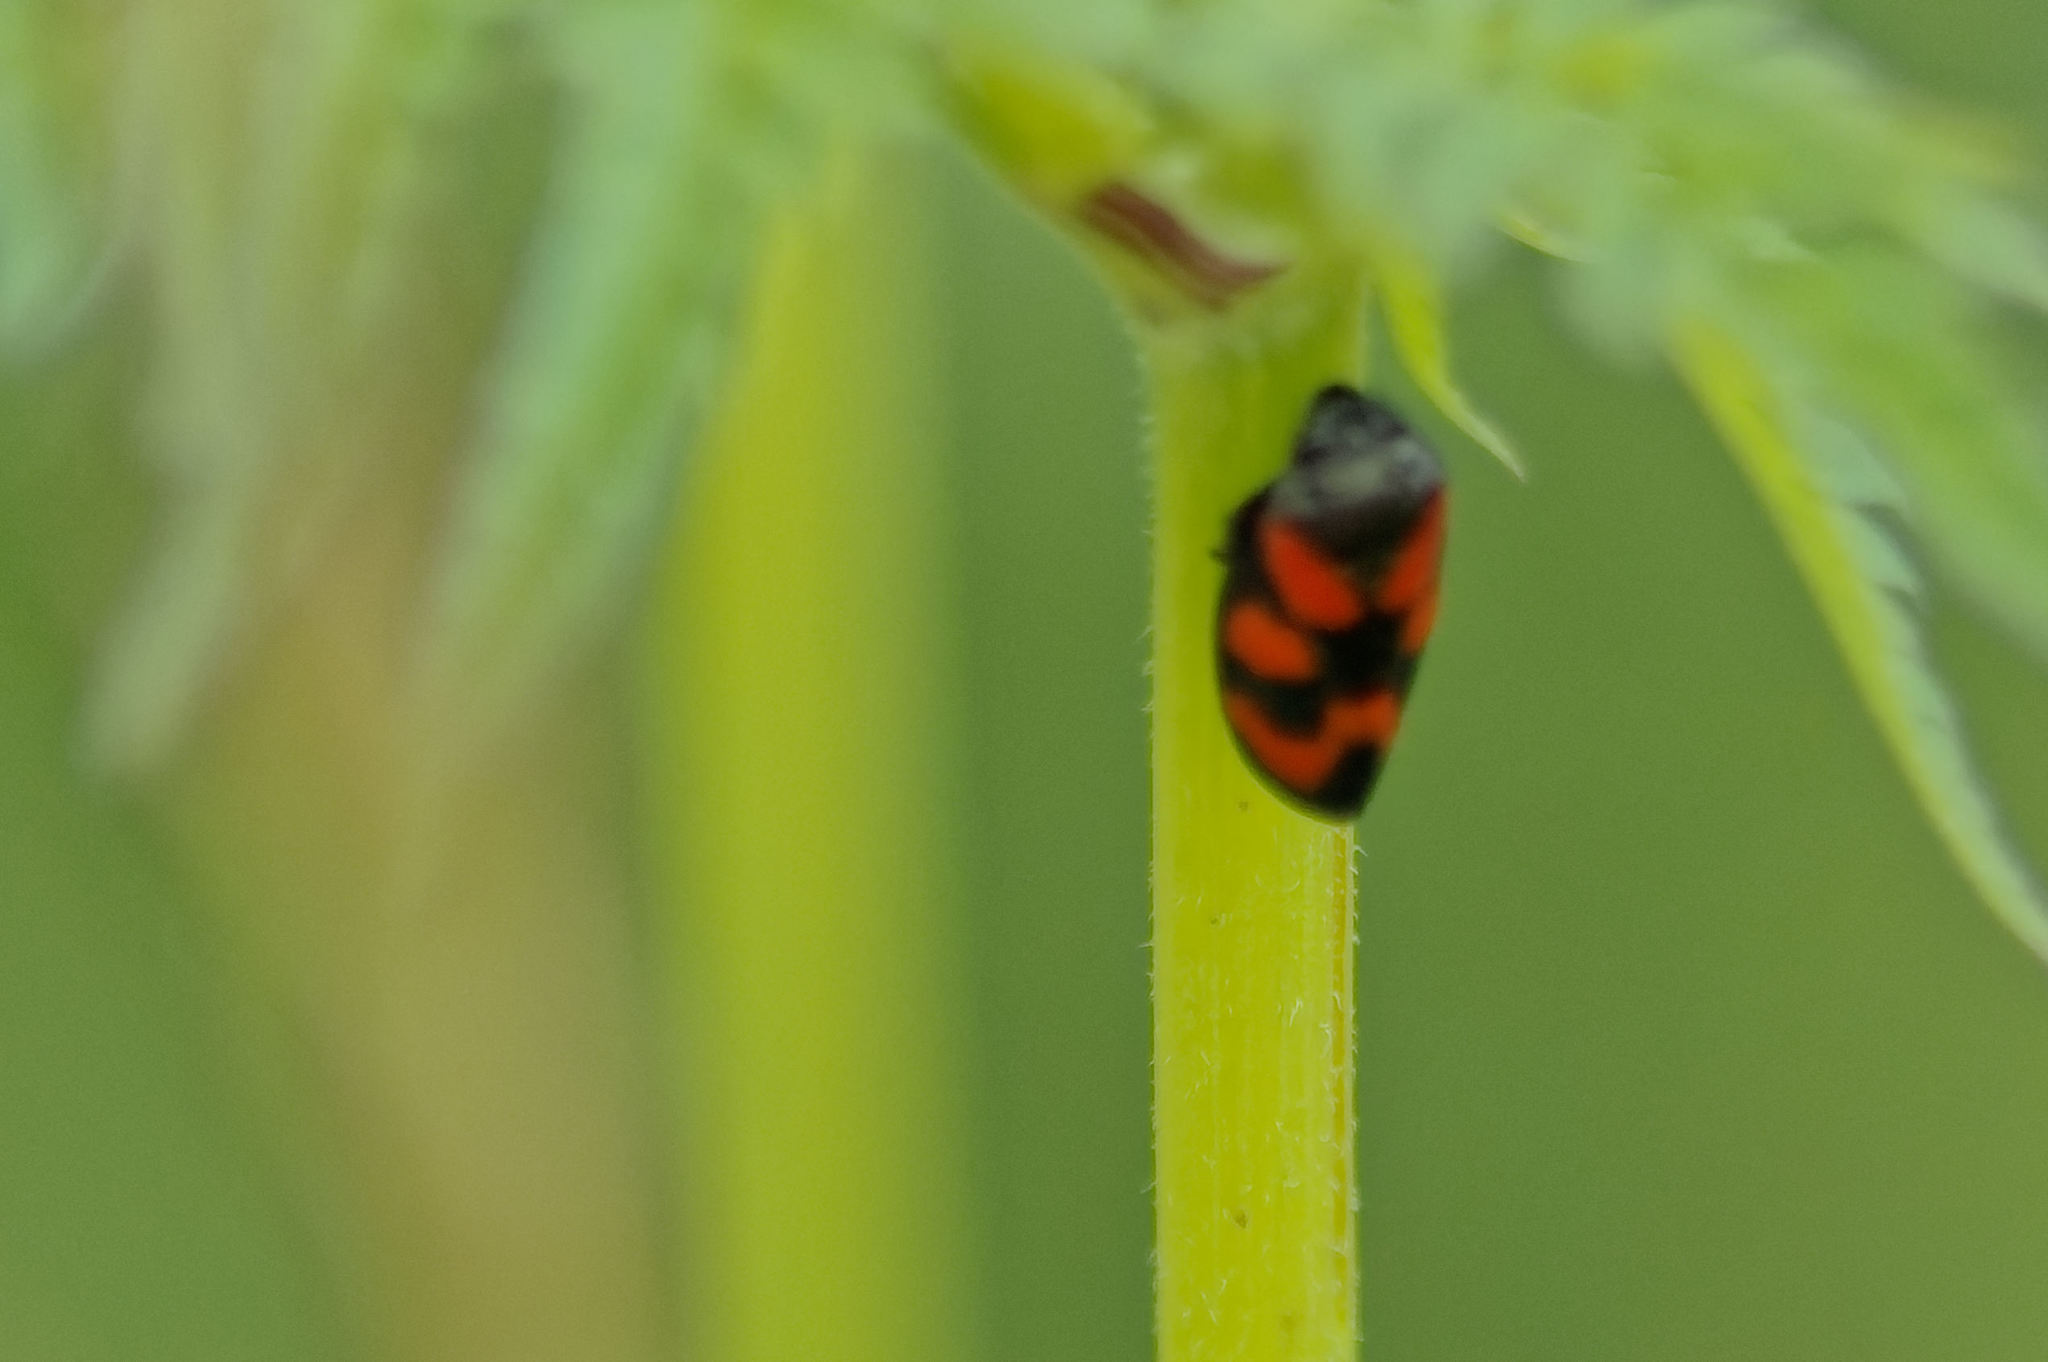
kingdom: Animalia
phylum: Arthropoda
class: Insecta
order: Hemiptera
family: Cercopidae
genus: Cercopis
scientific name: Cercopis vulnerata
